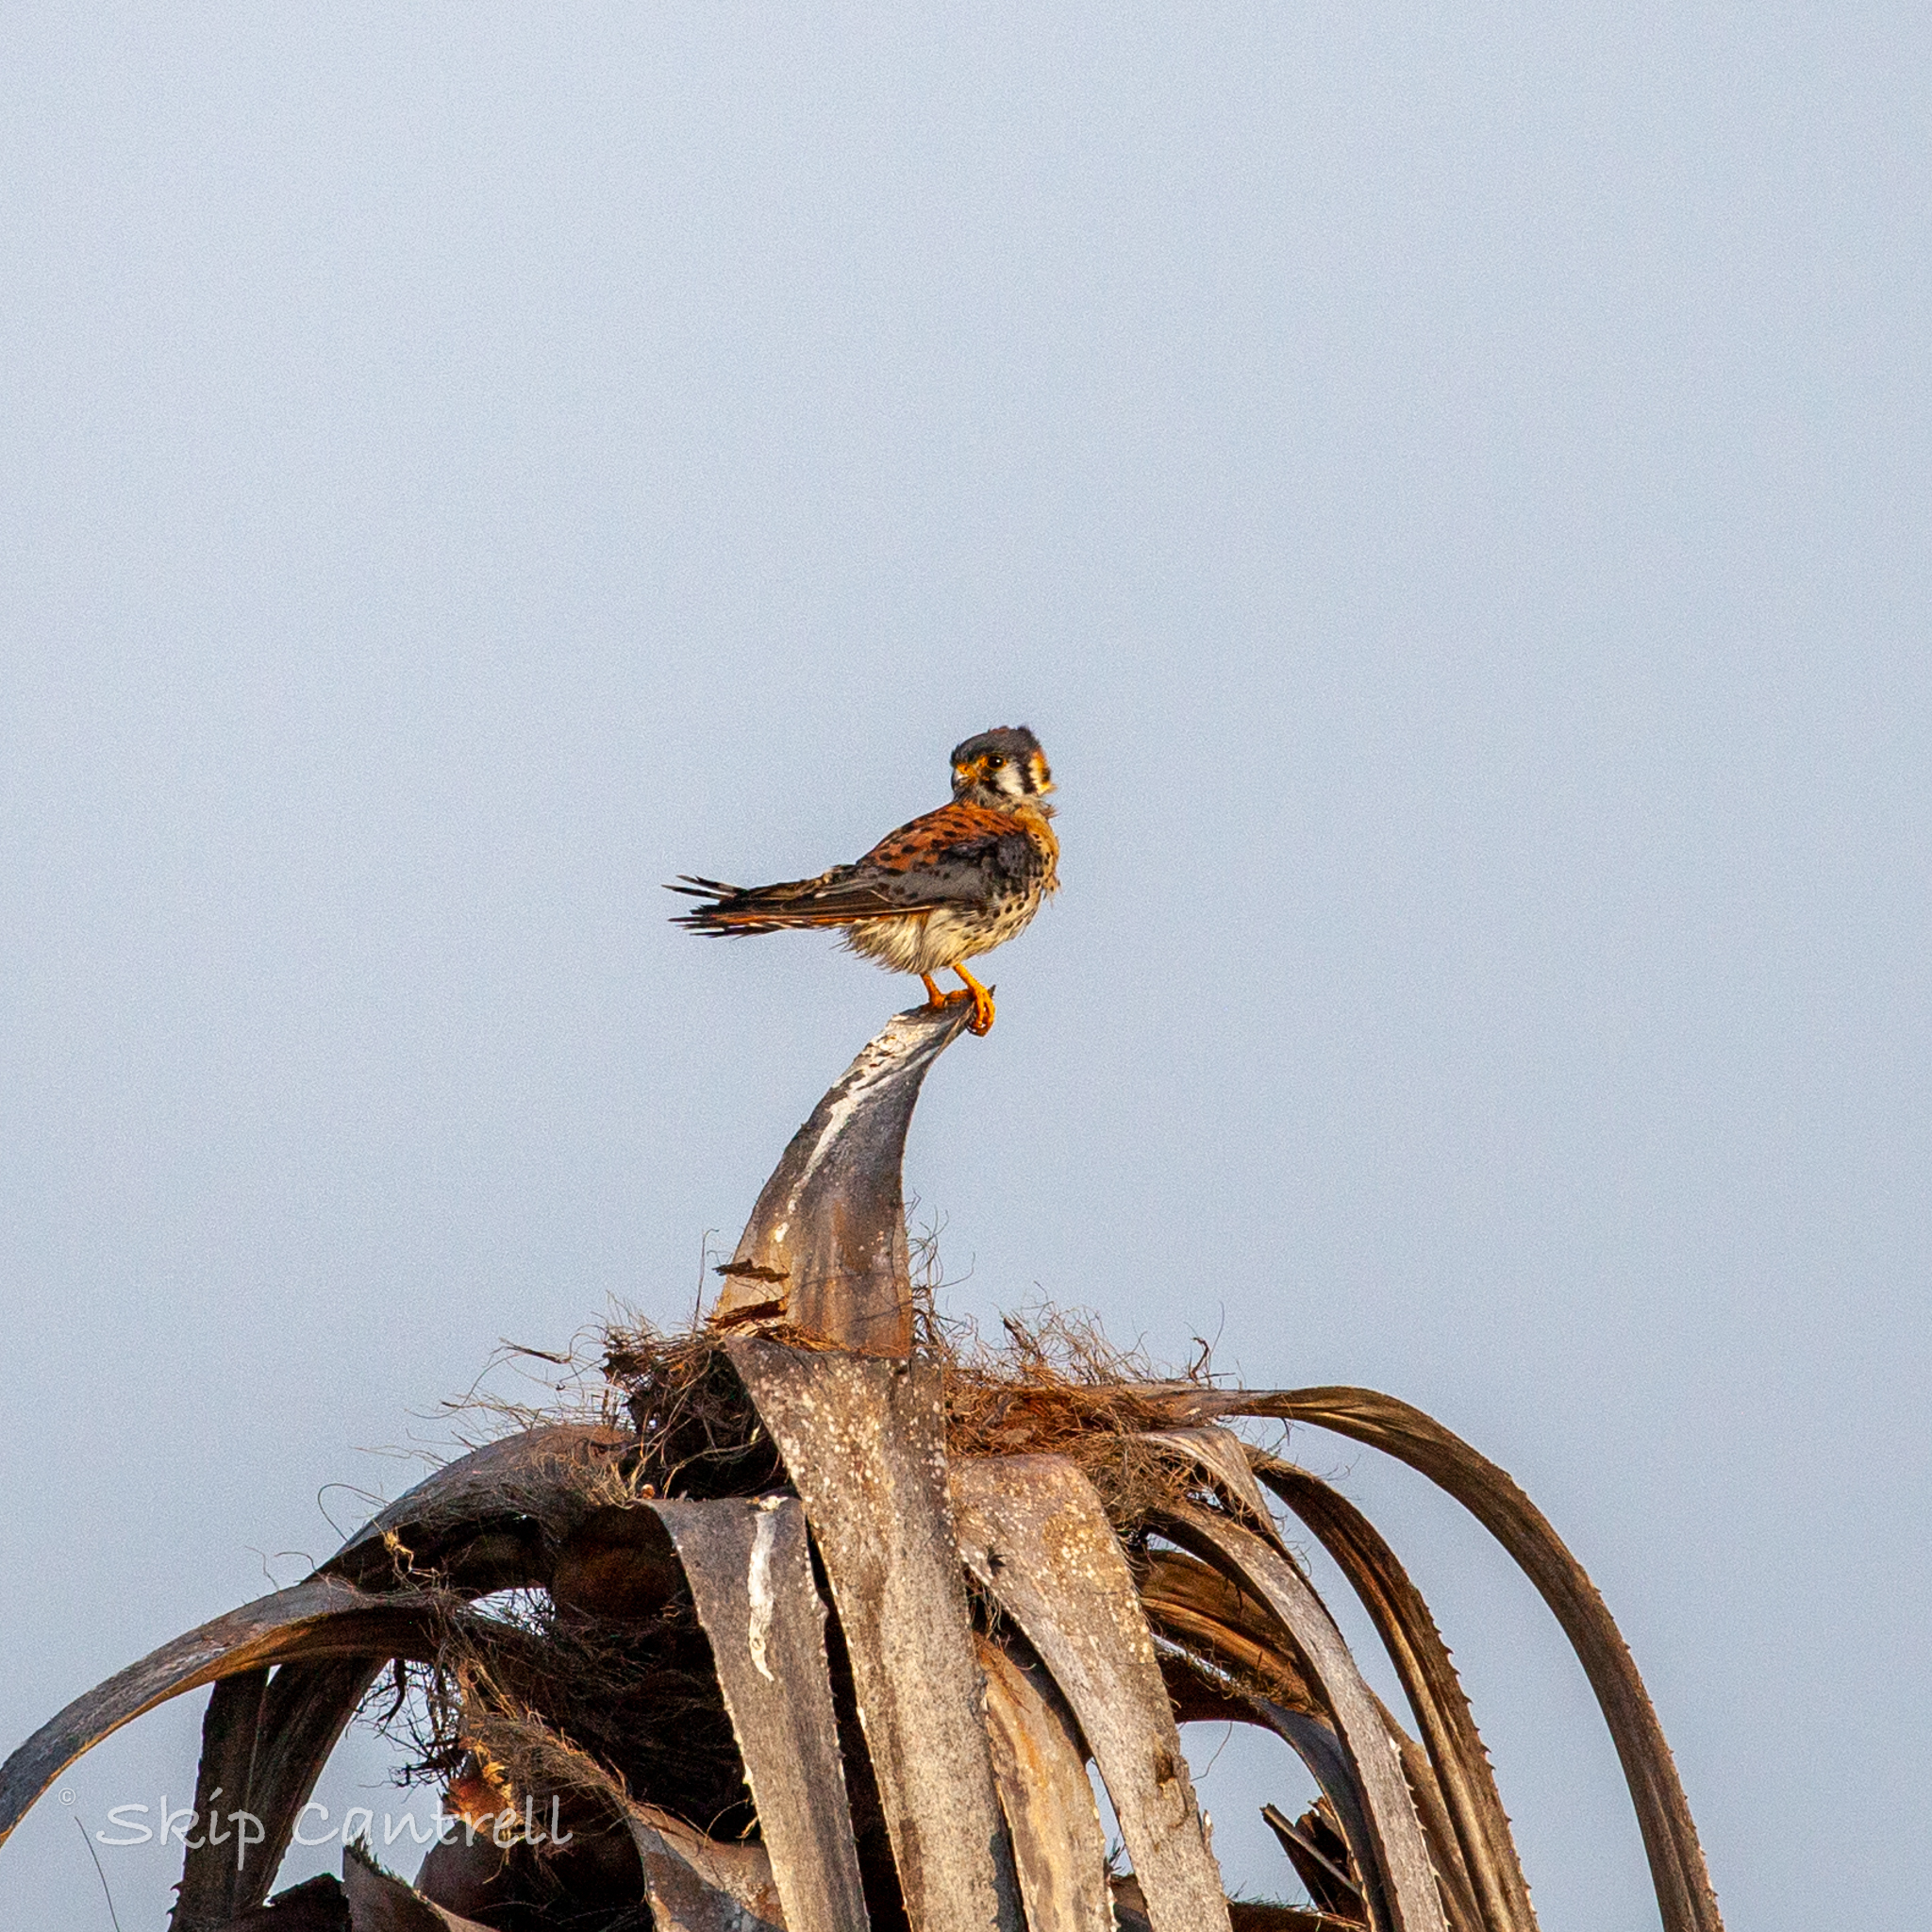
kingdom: Animalia
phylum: Chordata
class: Aves
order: Falconiformes
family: Falconidae
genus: Falco
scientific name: Falco sparverius
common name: American kestrel
